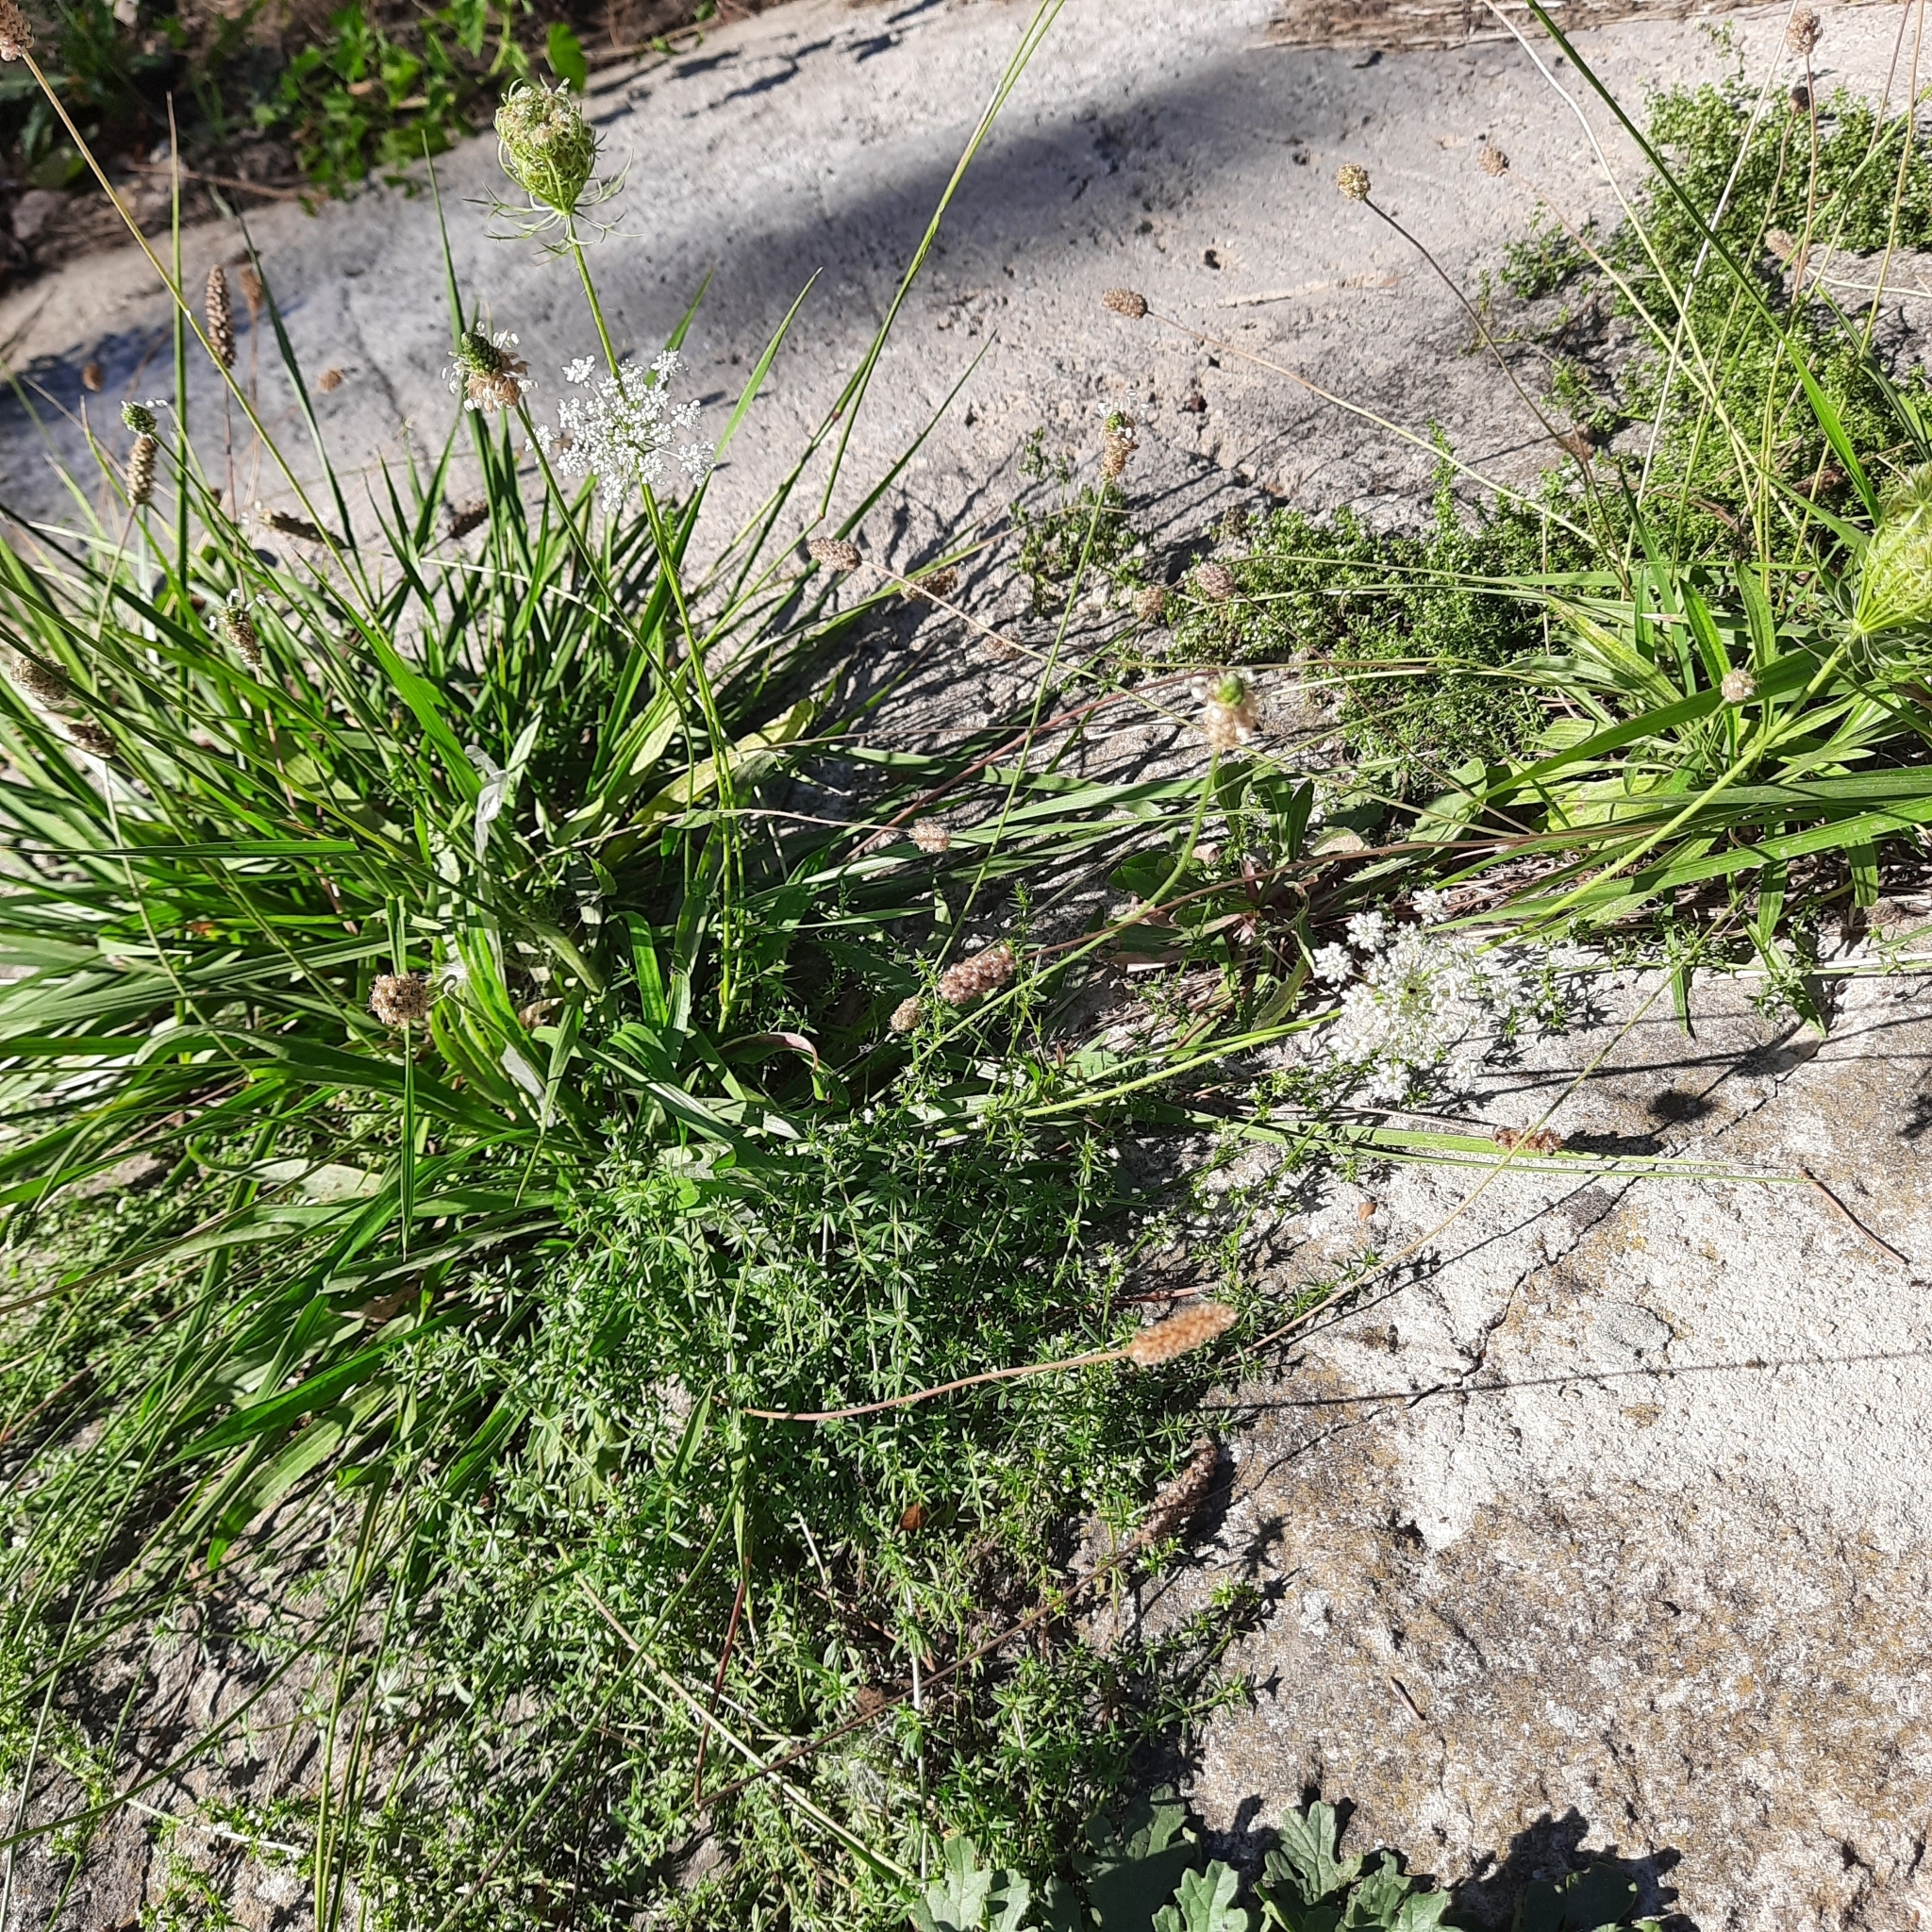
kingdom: Plantae
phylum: Tracheophyta
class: Magnoliopsida
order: Lamiales
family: Plantaginaceae
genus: Plantago
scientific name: Plantago lanceolata
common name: Ribwort plantain
